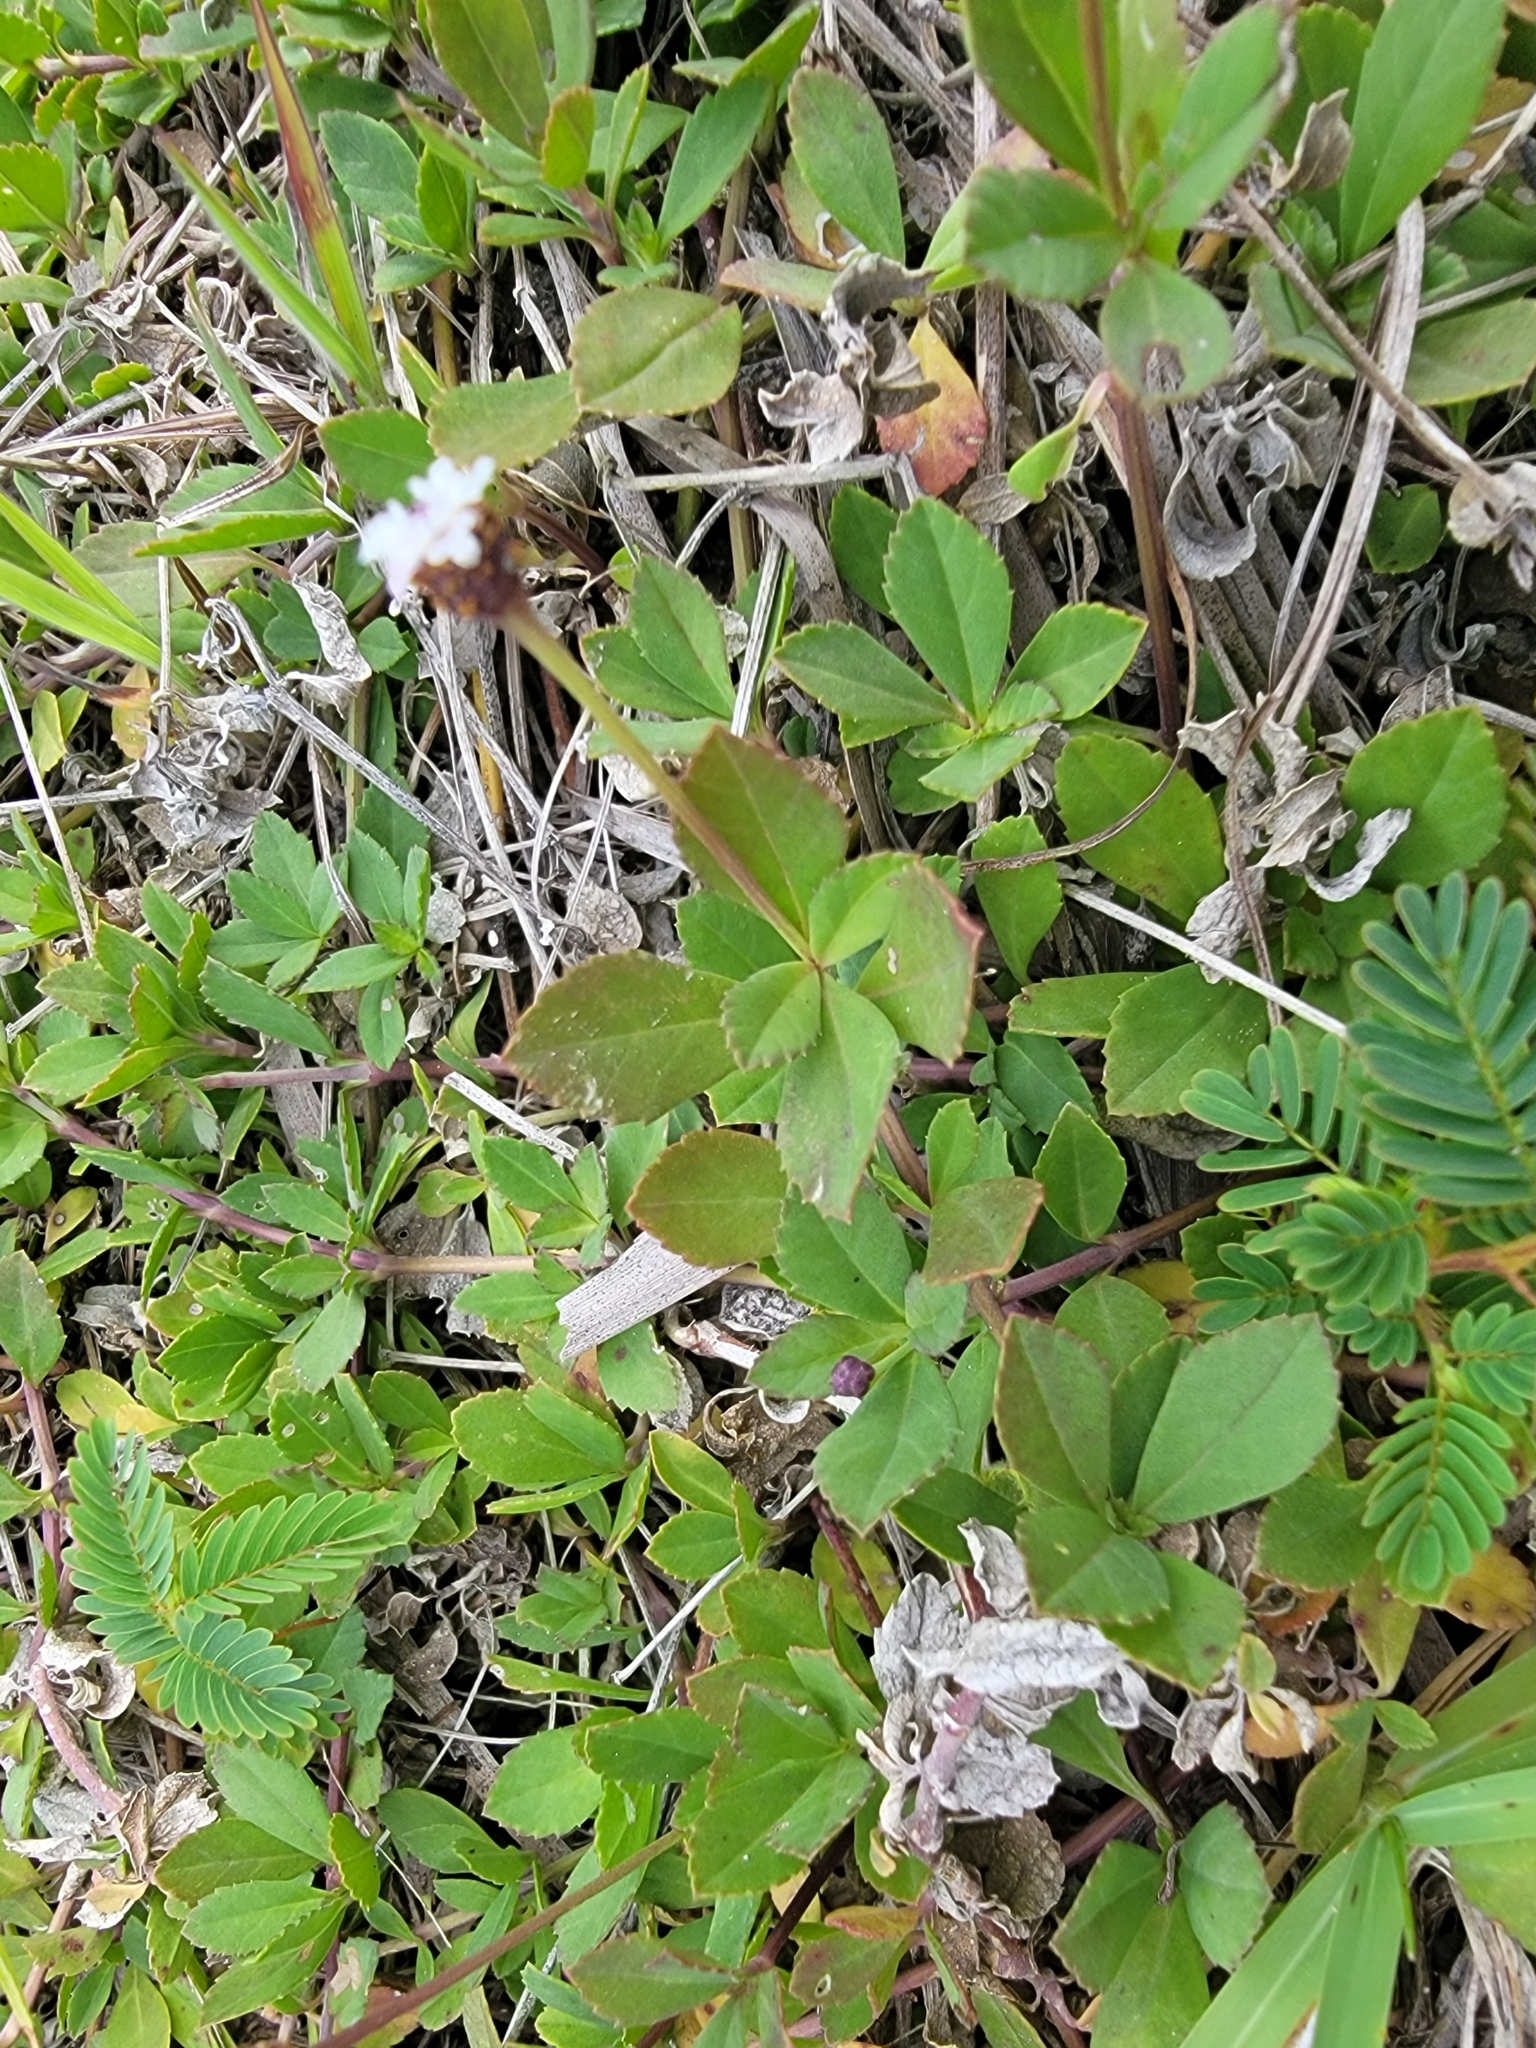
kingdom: Plantae
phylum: Tracheophyta
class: Magnoliopsida
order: Lamiales
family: Verbenaceae
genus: Phyla
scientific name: Phyla nodiflora
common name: Frogfruit
